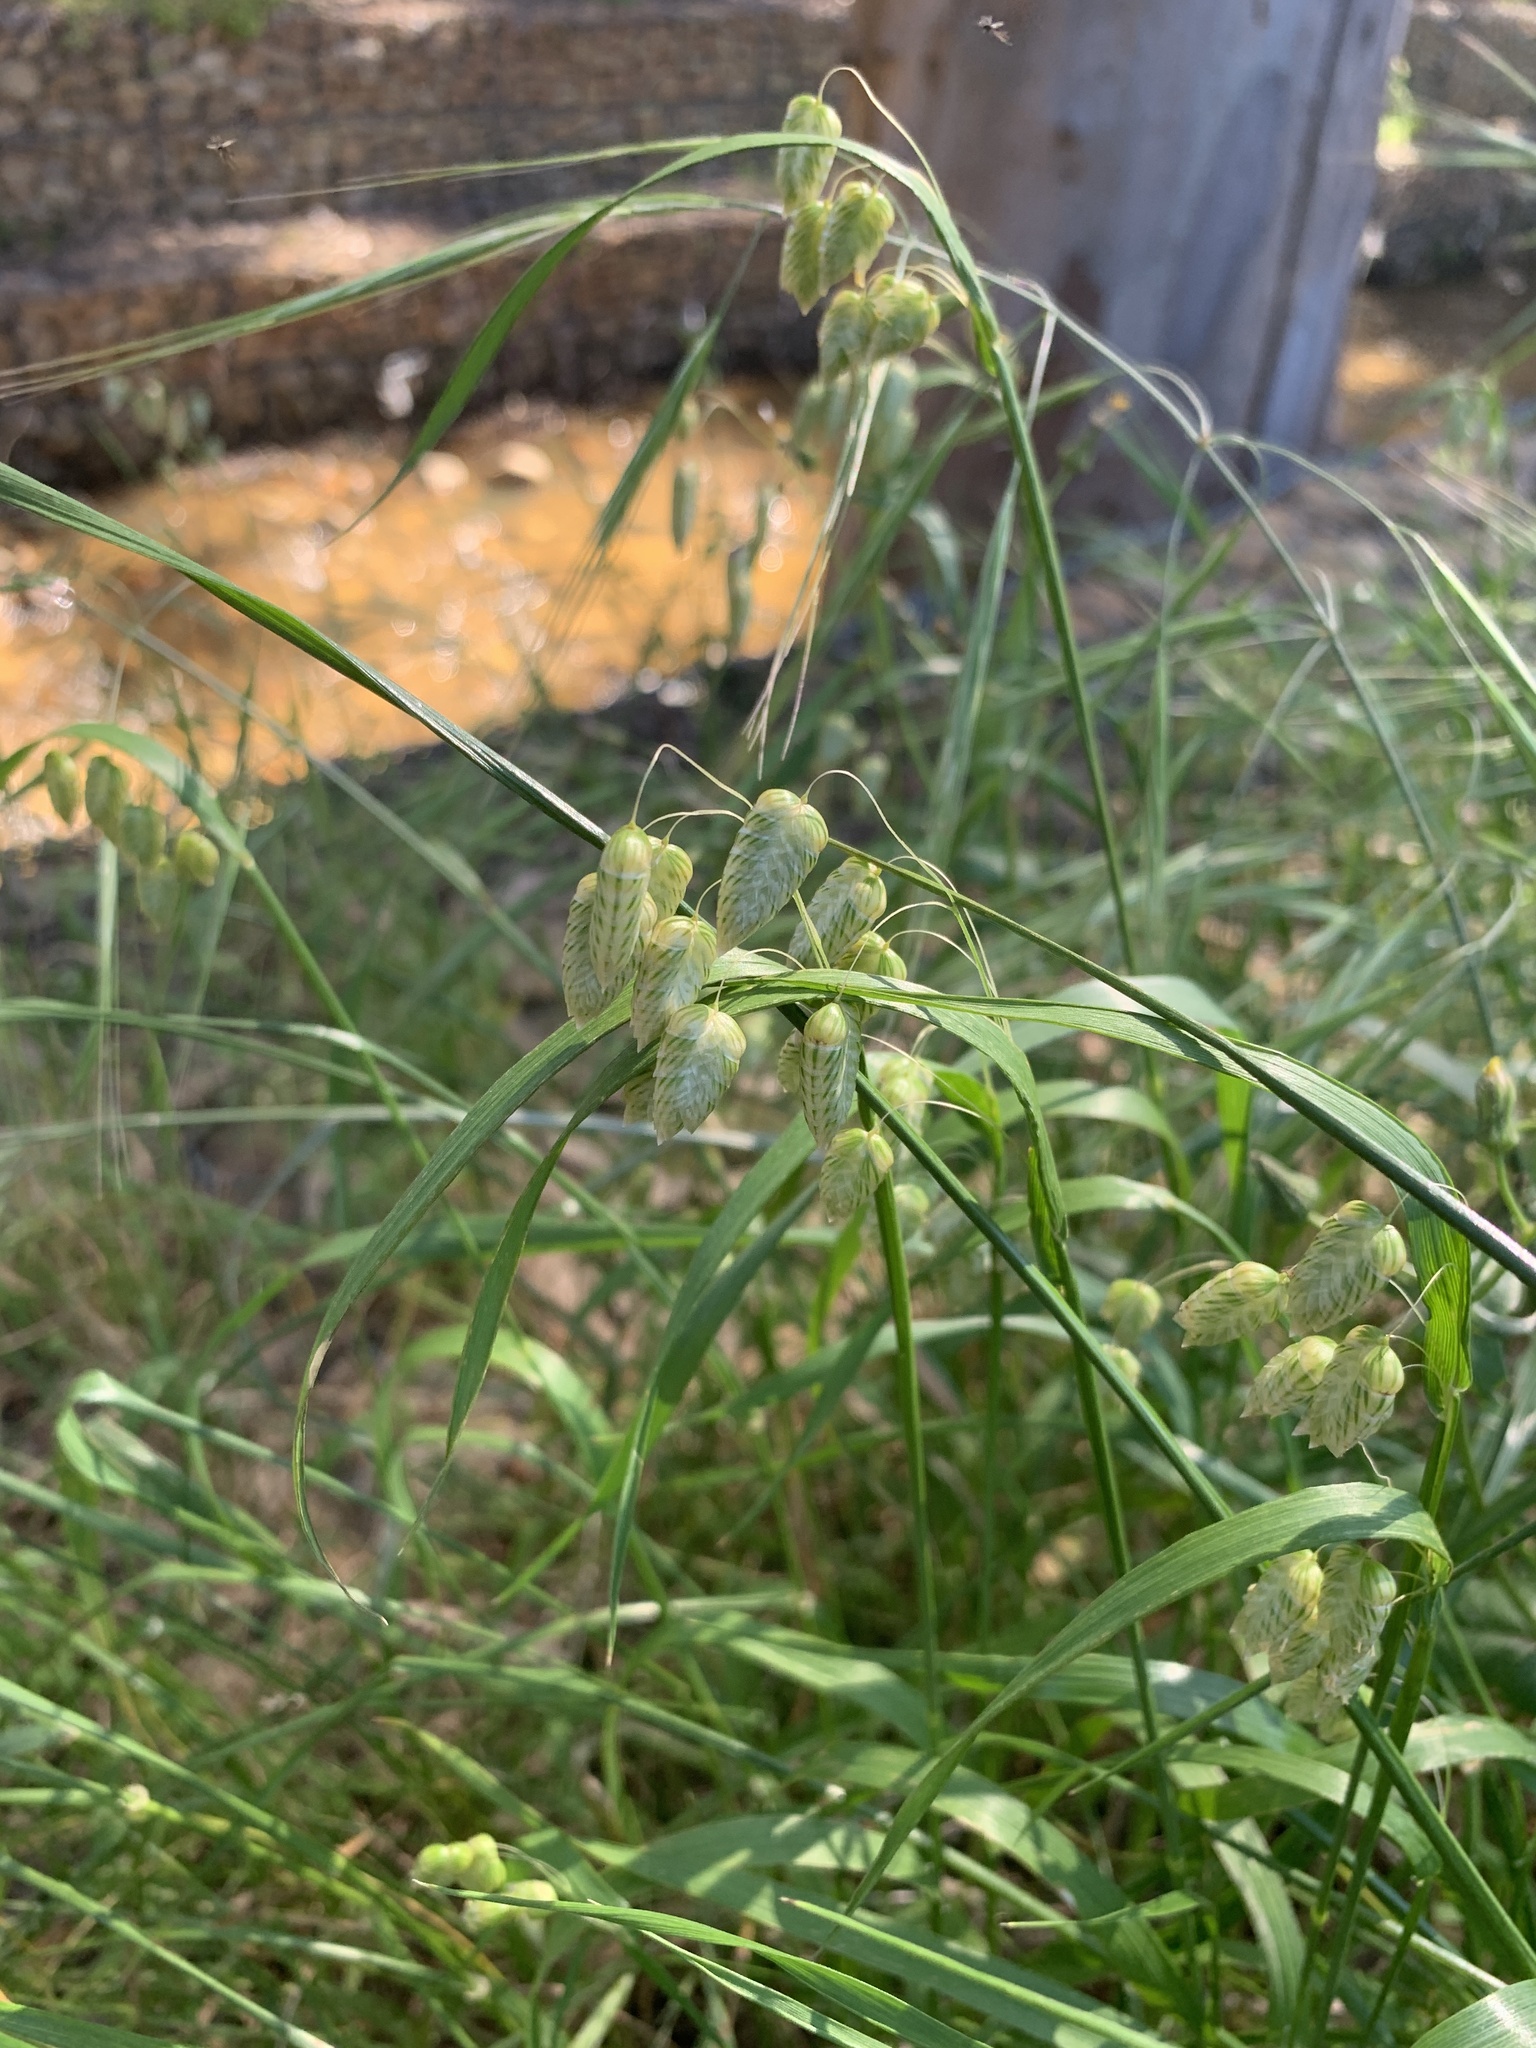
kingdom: Plantae
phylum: Tracheophyta
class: Liliopsida
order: Poales
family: Poaceae
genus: Briza
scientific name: Briza maxima
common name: Big quakinggrass
